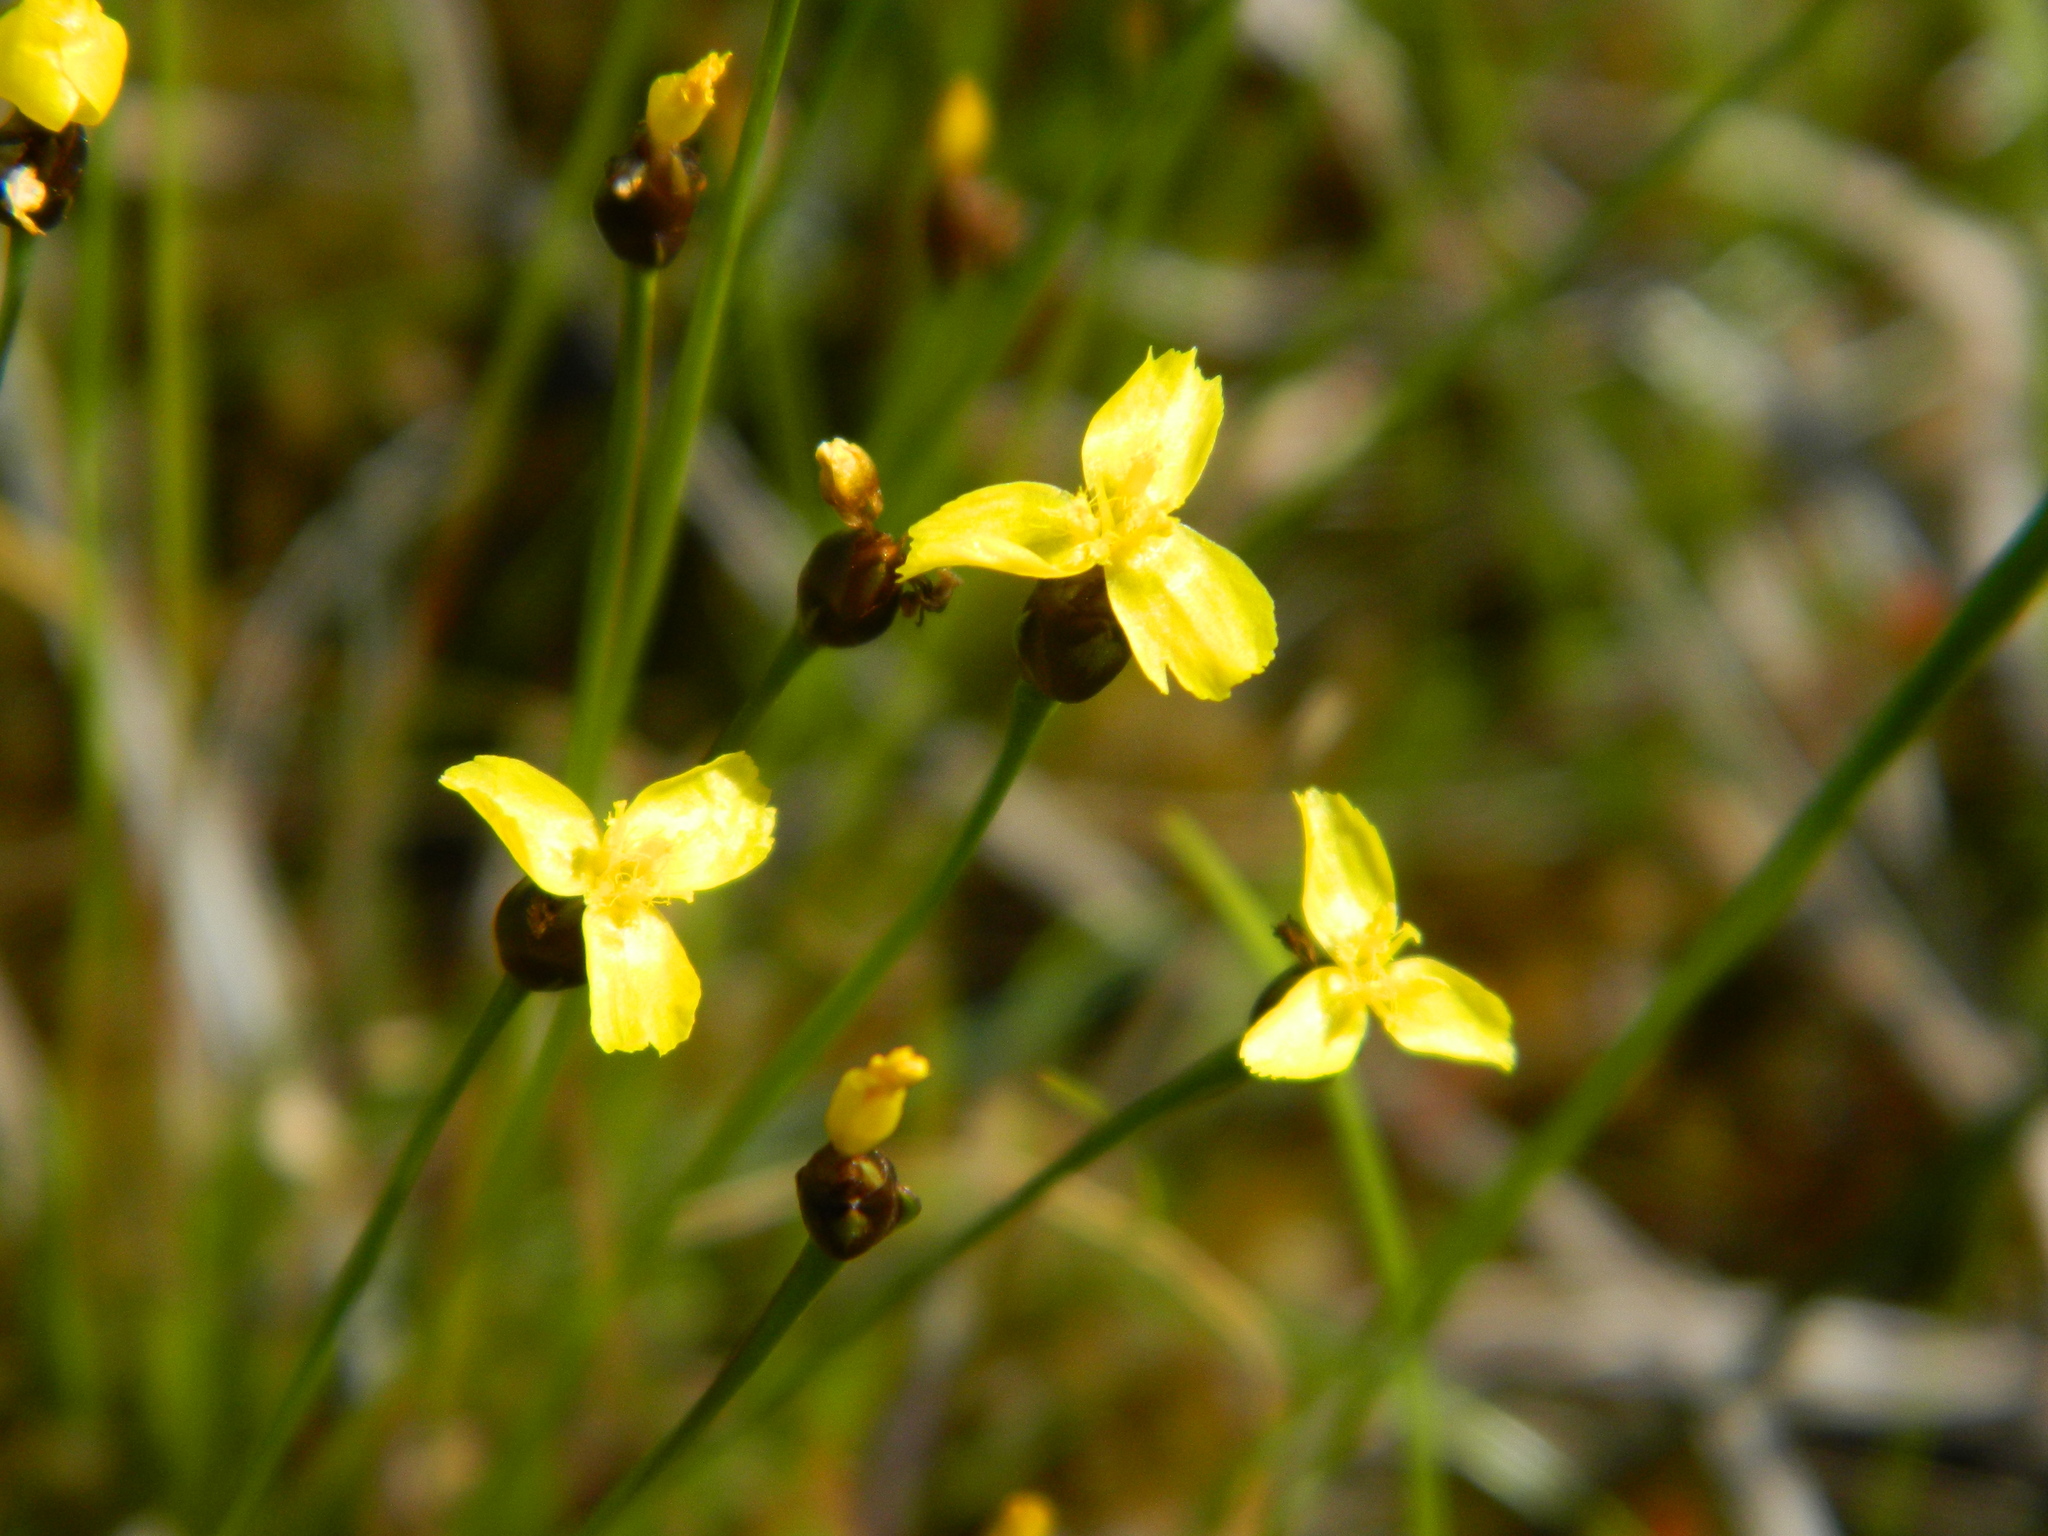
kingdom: Plantae
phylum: Tracheophyta
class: Liliopsida
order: Poales
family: Xyridaceae
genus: Xyris
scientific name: Xyris montana
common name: Northern yellow-eyed-grass
